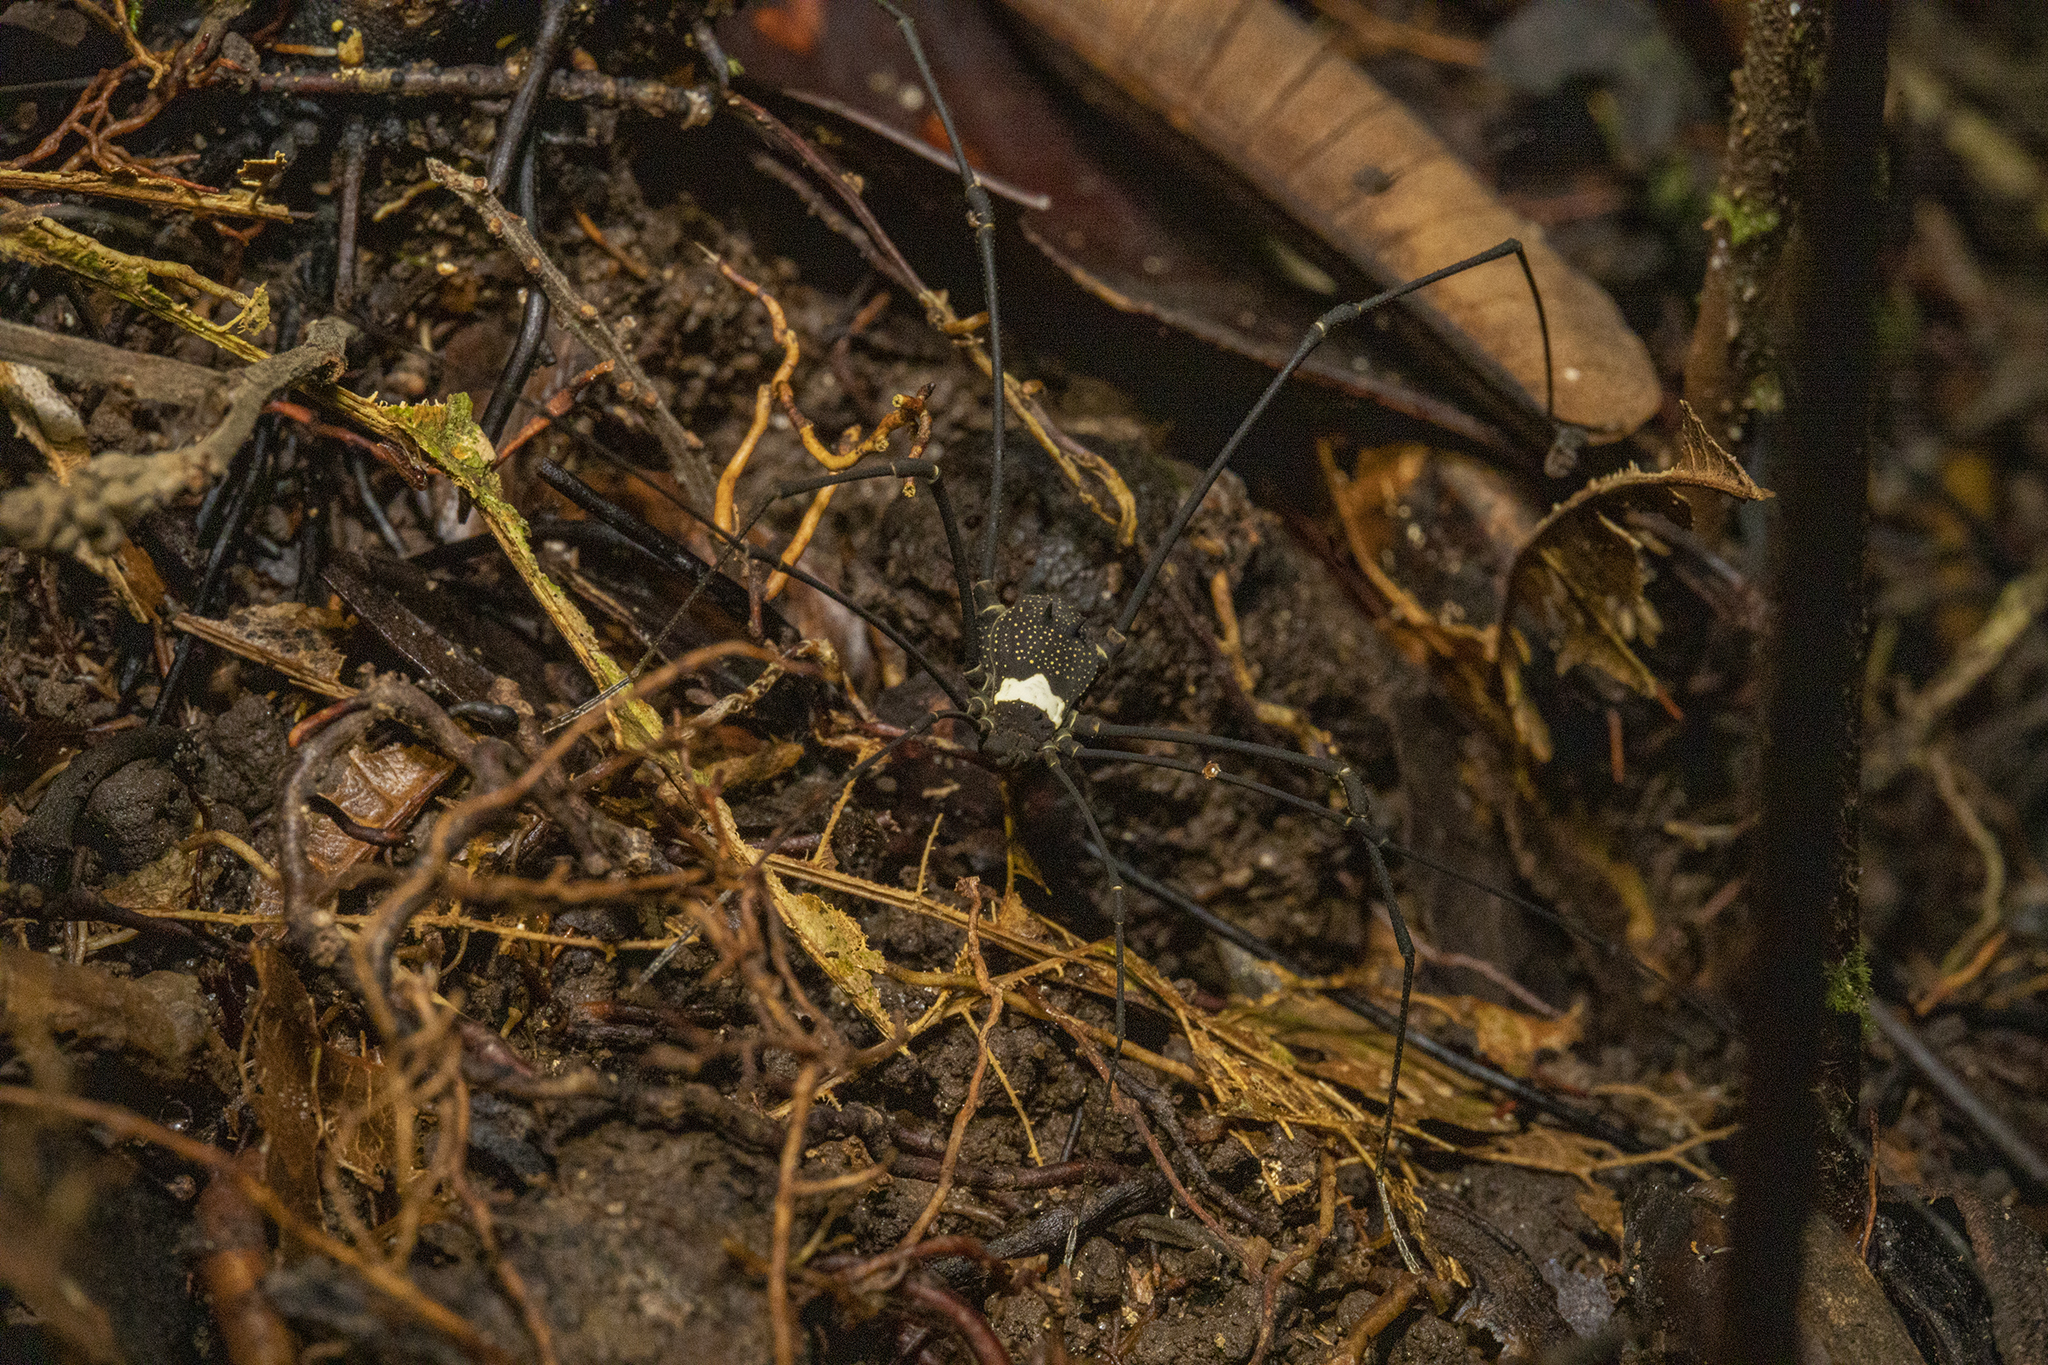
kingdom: Animalia
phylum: Arthropoda
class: Arachnida
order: Opiliones
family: Cosmetidae
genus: Paecilaemella
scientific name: Paecilaemella multimaculata
